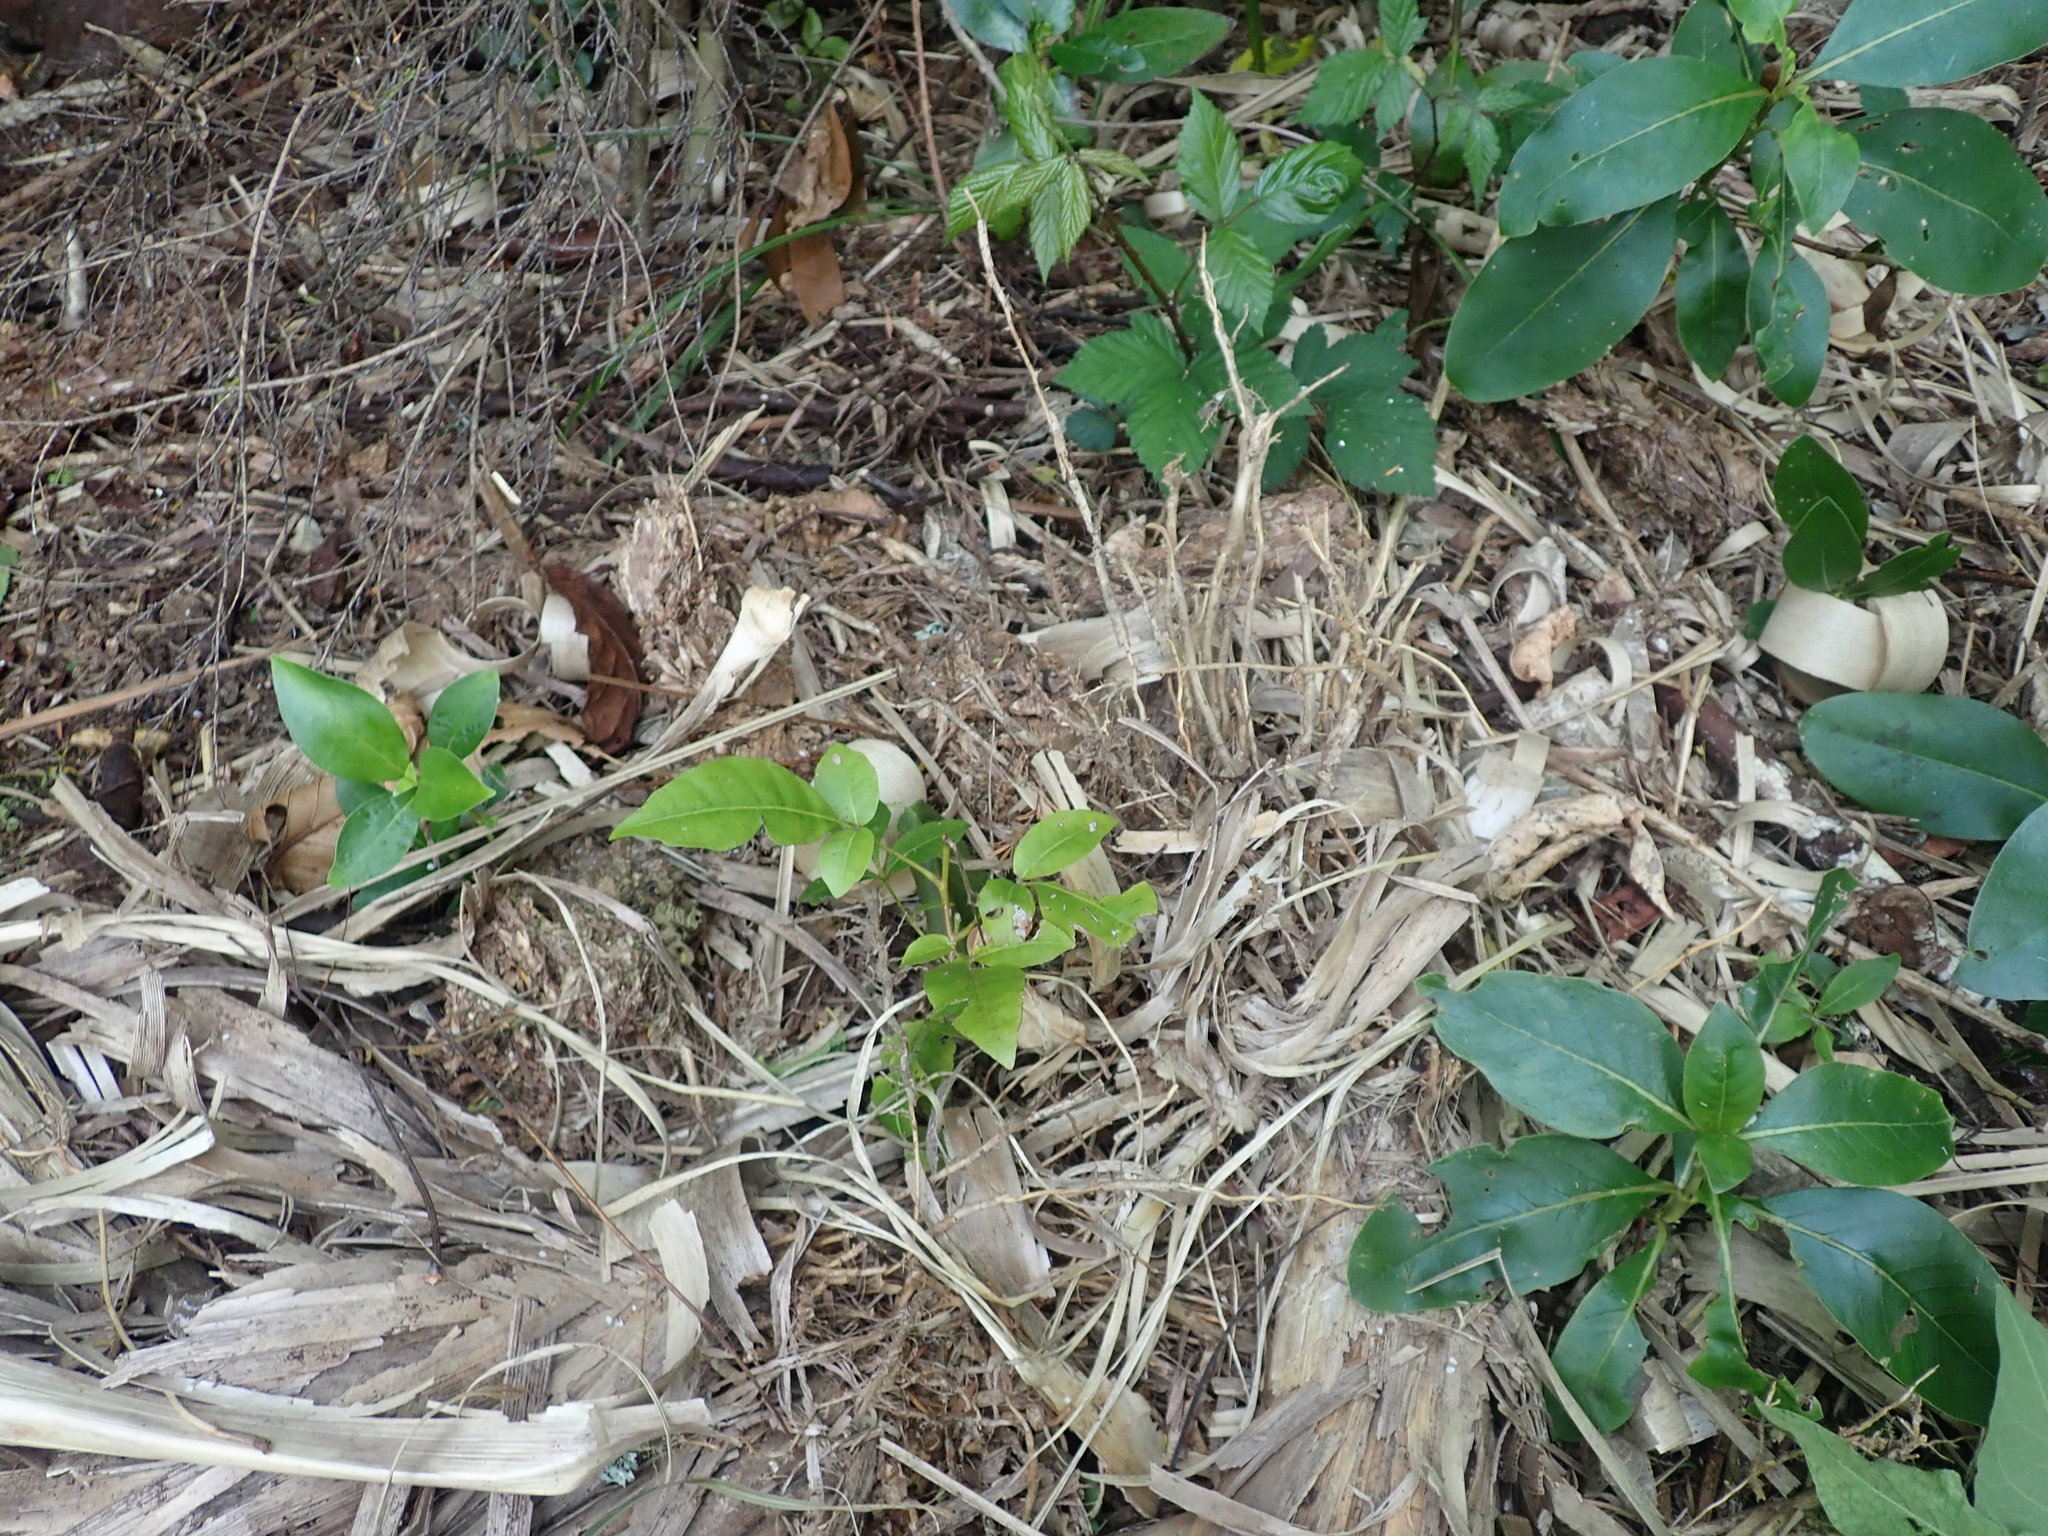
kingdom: Plantae
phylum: Tracheophyta
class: Magnoliopsida
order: Sapindales
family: Meliaceae
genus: Didymocheton
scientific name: Didymocheton spectabilis
